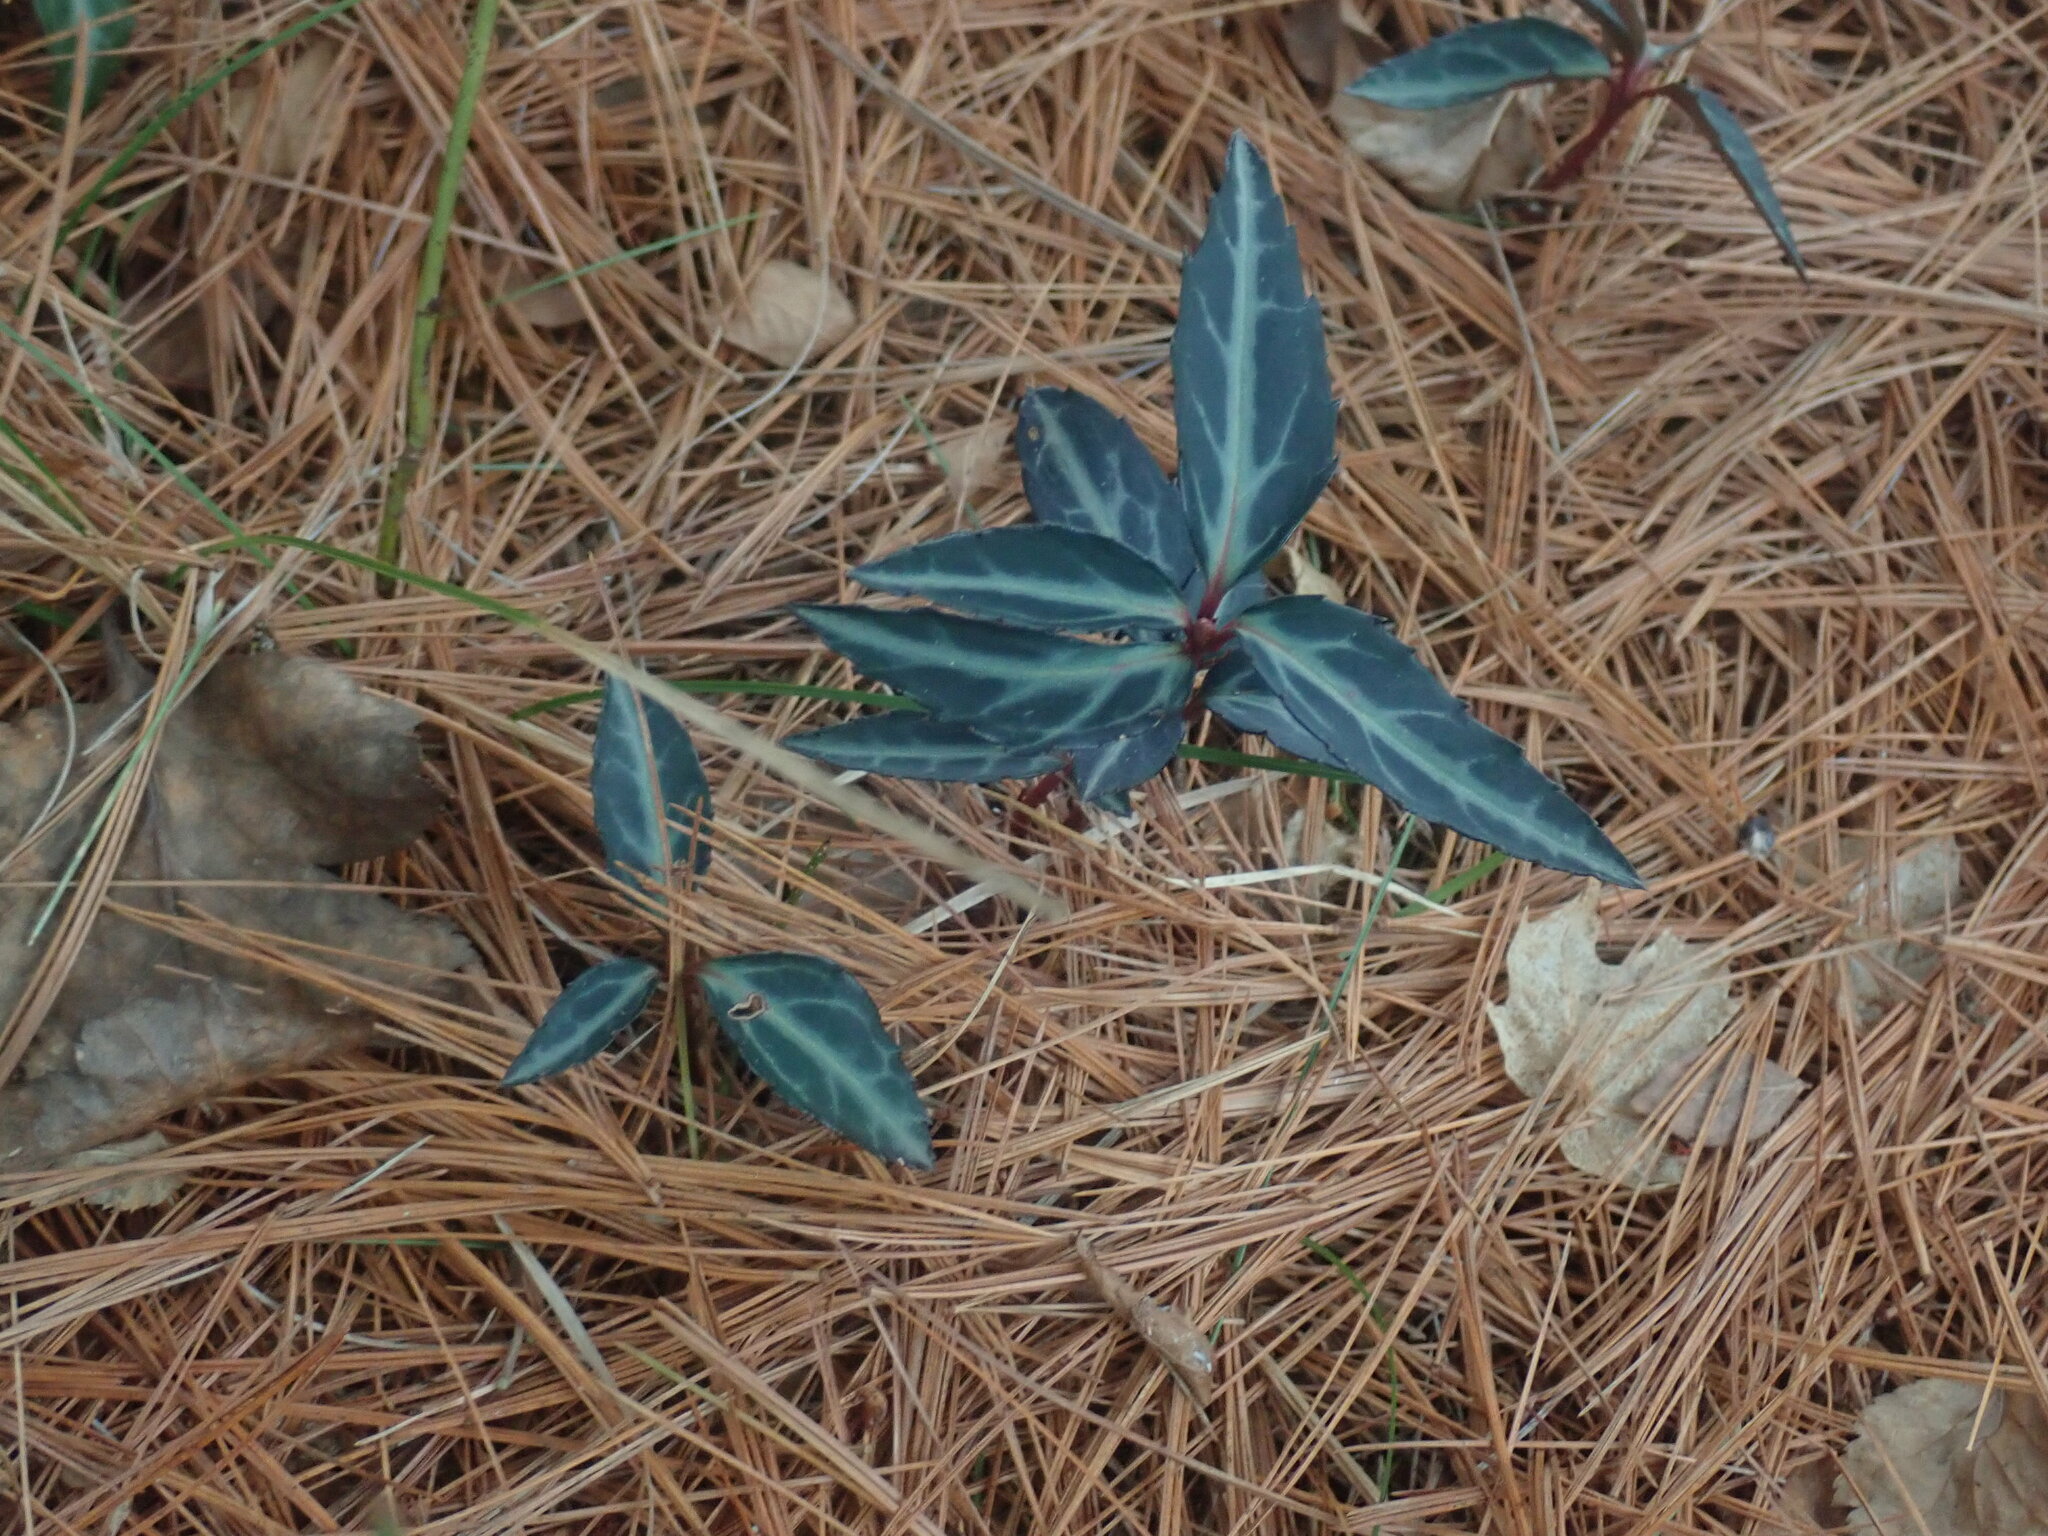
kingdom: Plantae
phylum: Tracheophyta
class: Magnoliopsida
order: Ericales
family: Ericaceae
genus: Chimaphila
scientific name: Chimaphila maculata
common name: Spotted pipsissewa
